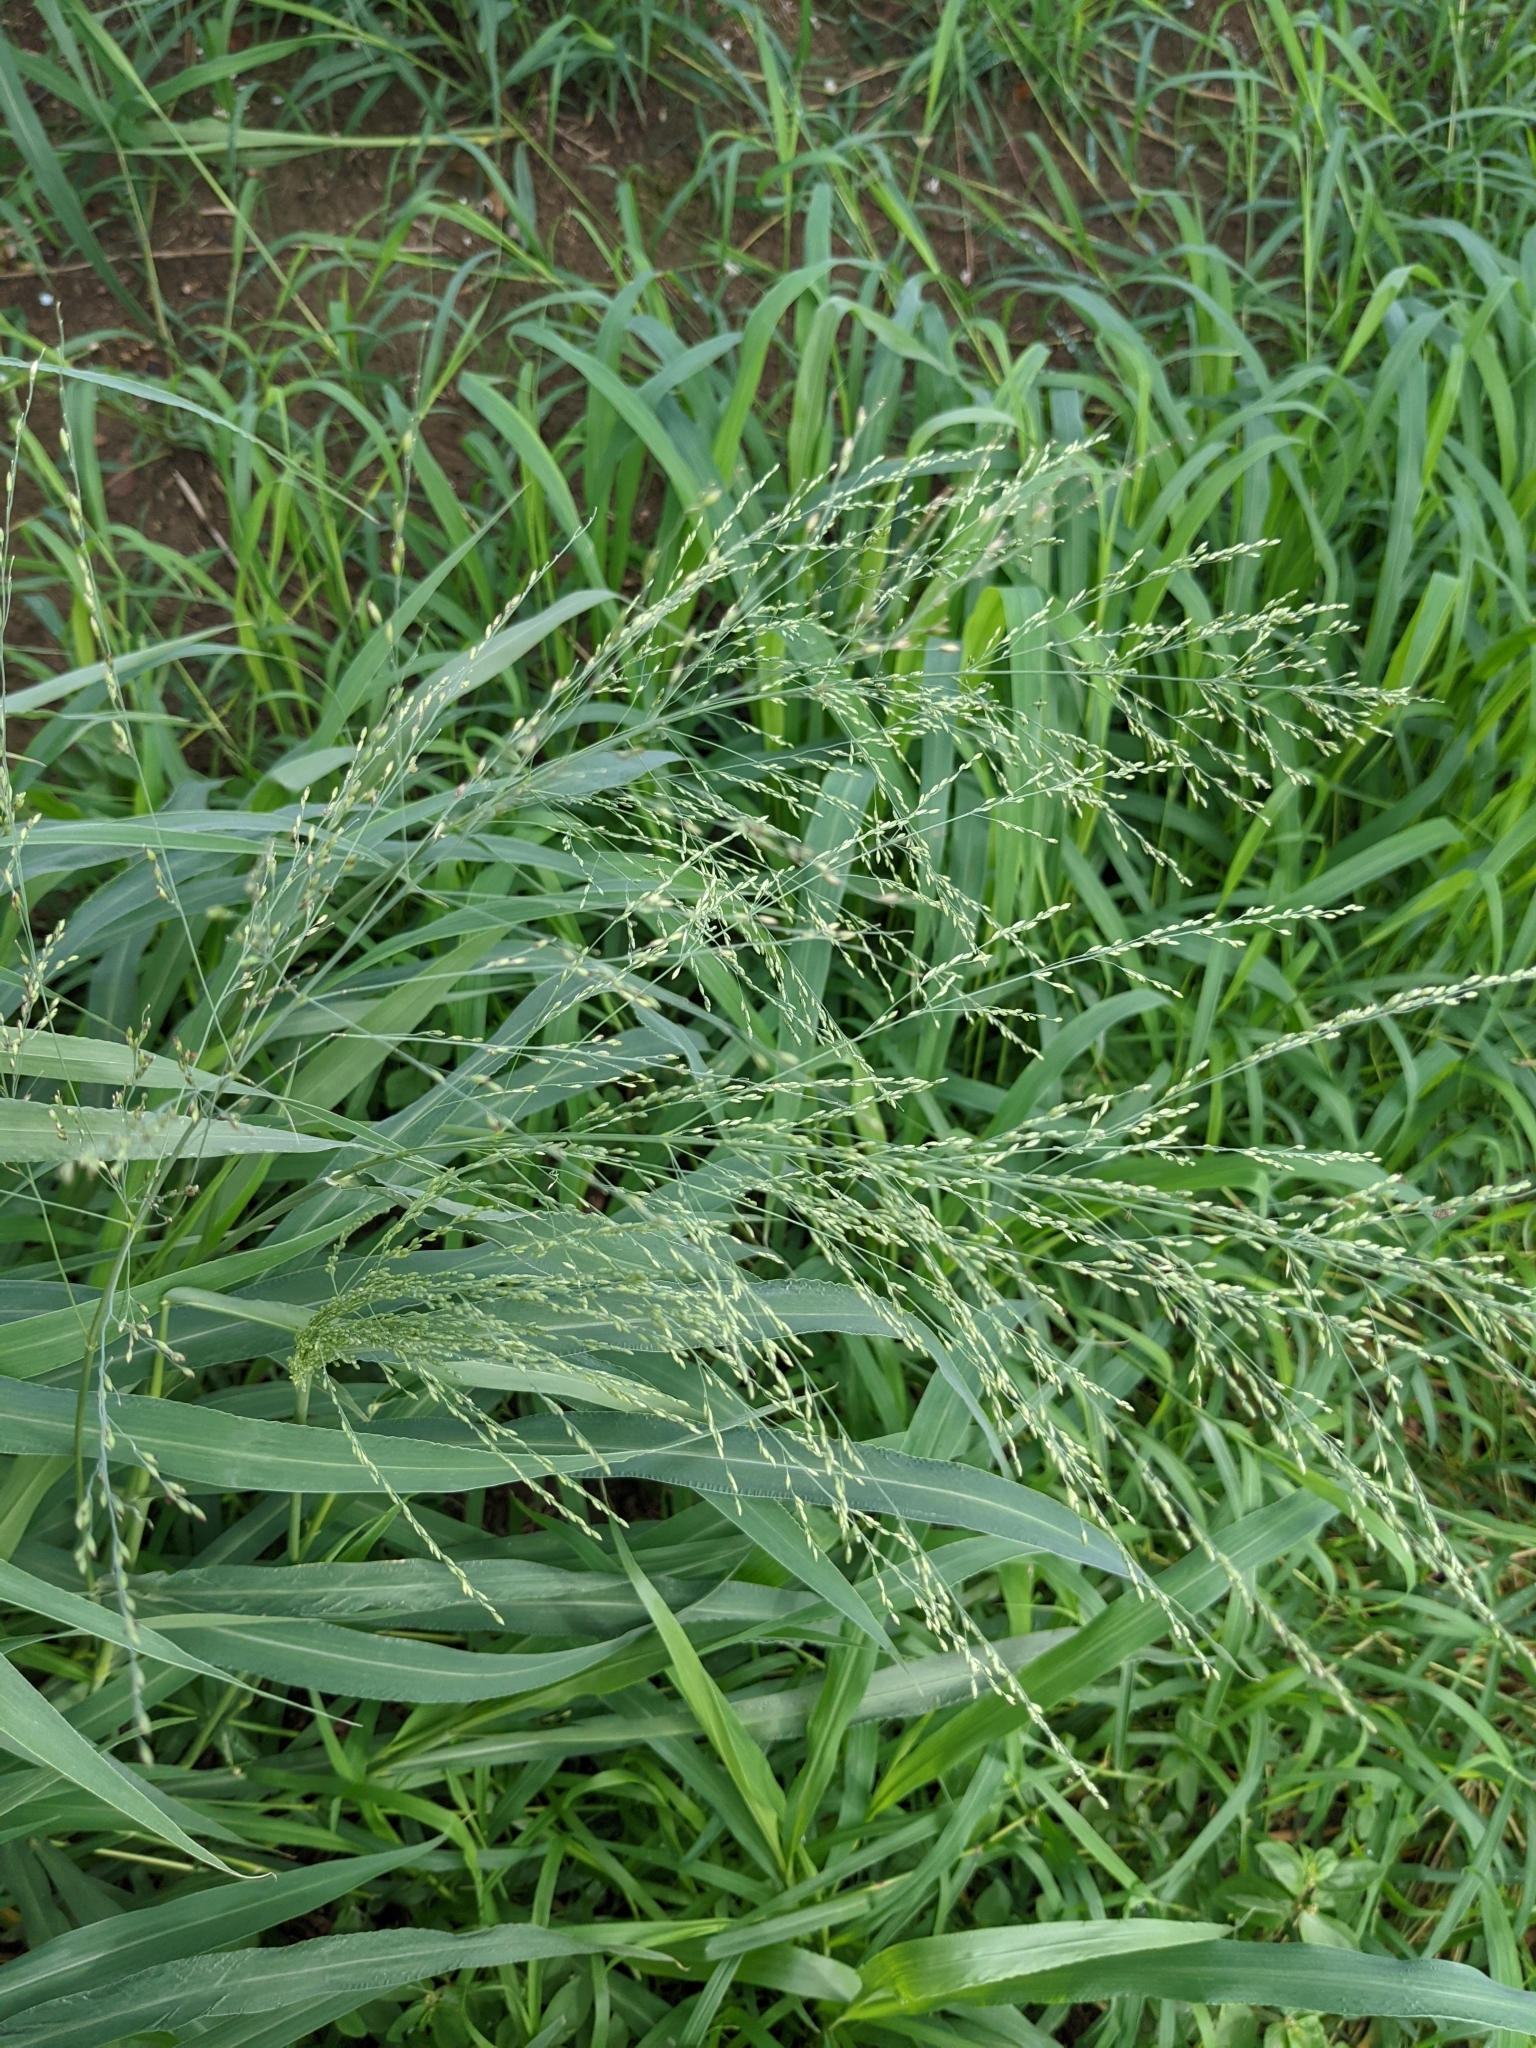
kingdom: Plantae
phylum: Tracheophyta
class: Liliopsida
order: Poales
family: Poaceae
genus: Megathyrsus
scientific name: Megathyrsus maximus
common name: Guineagrass
